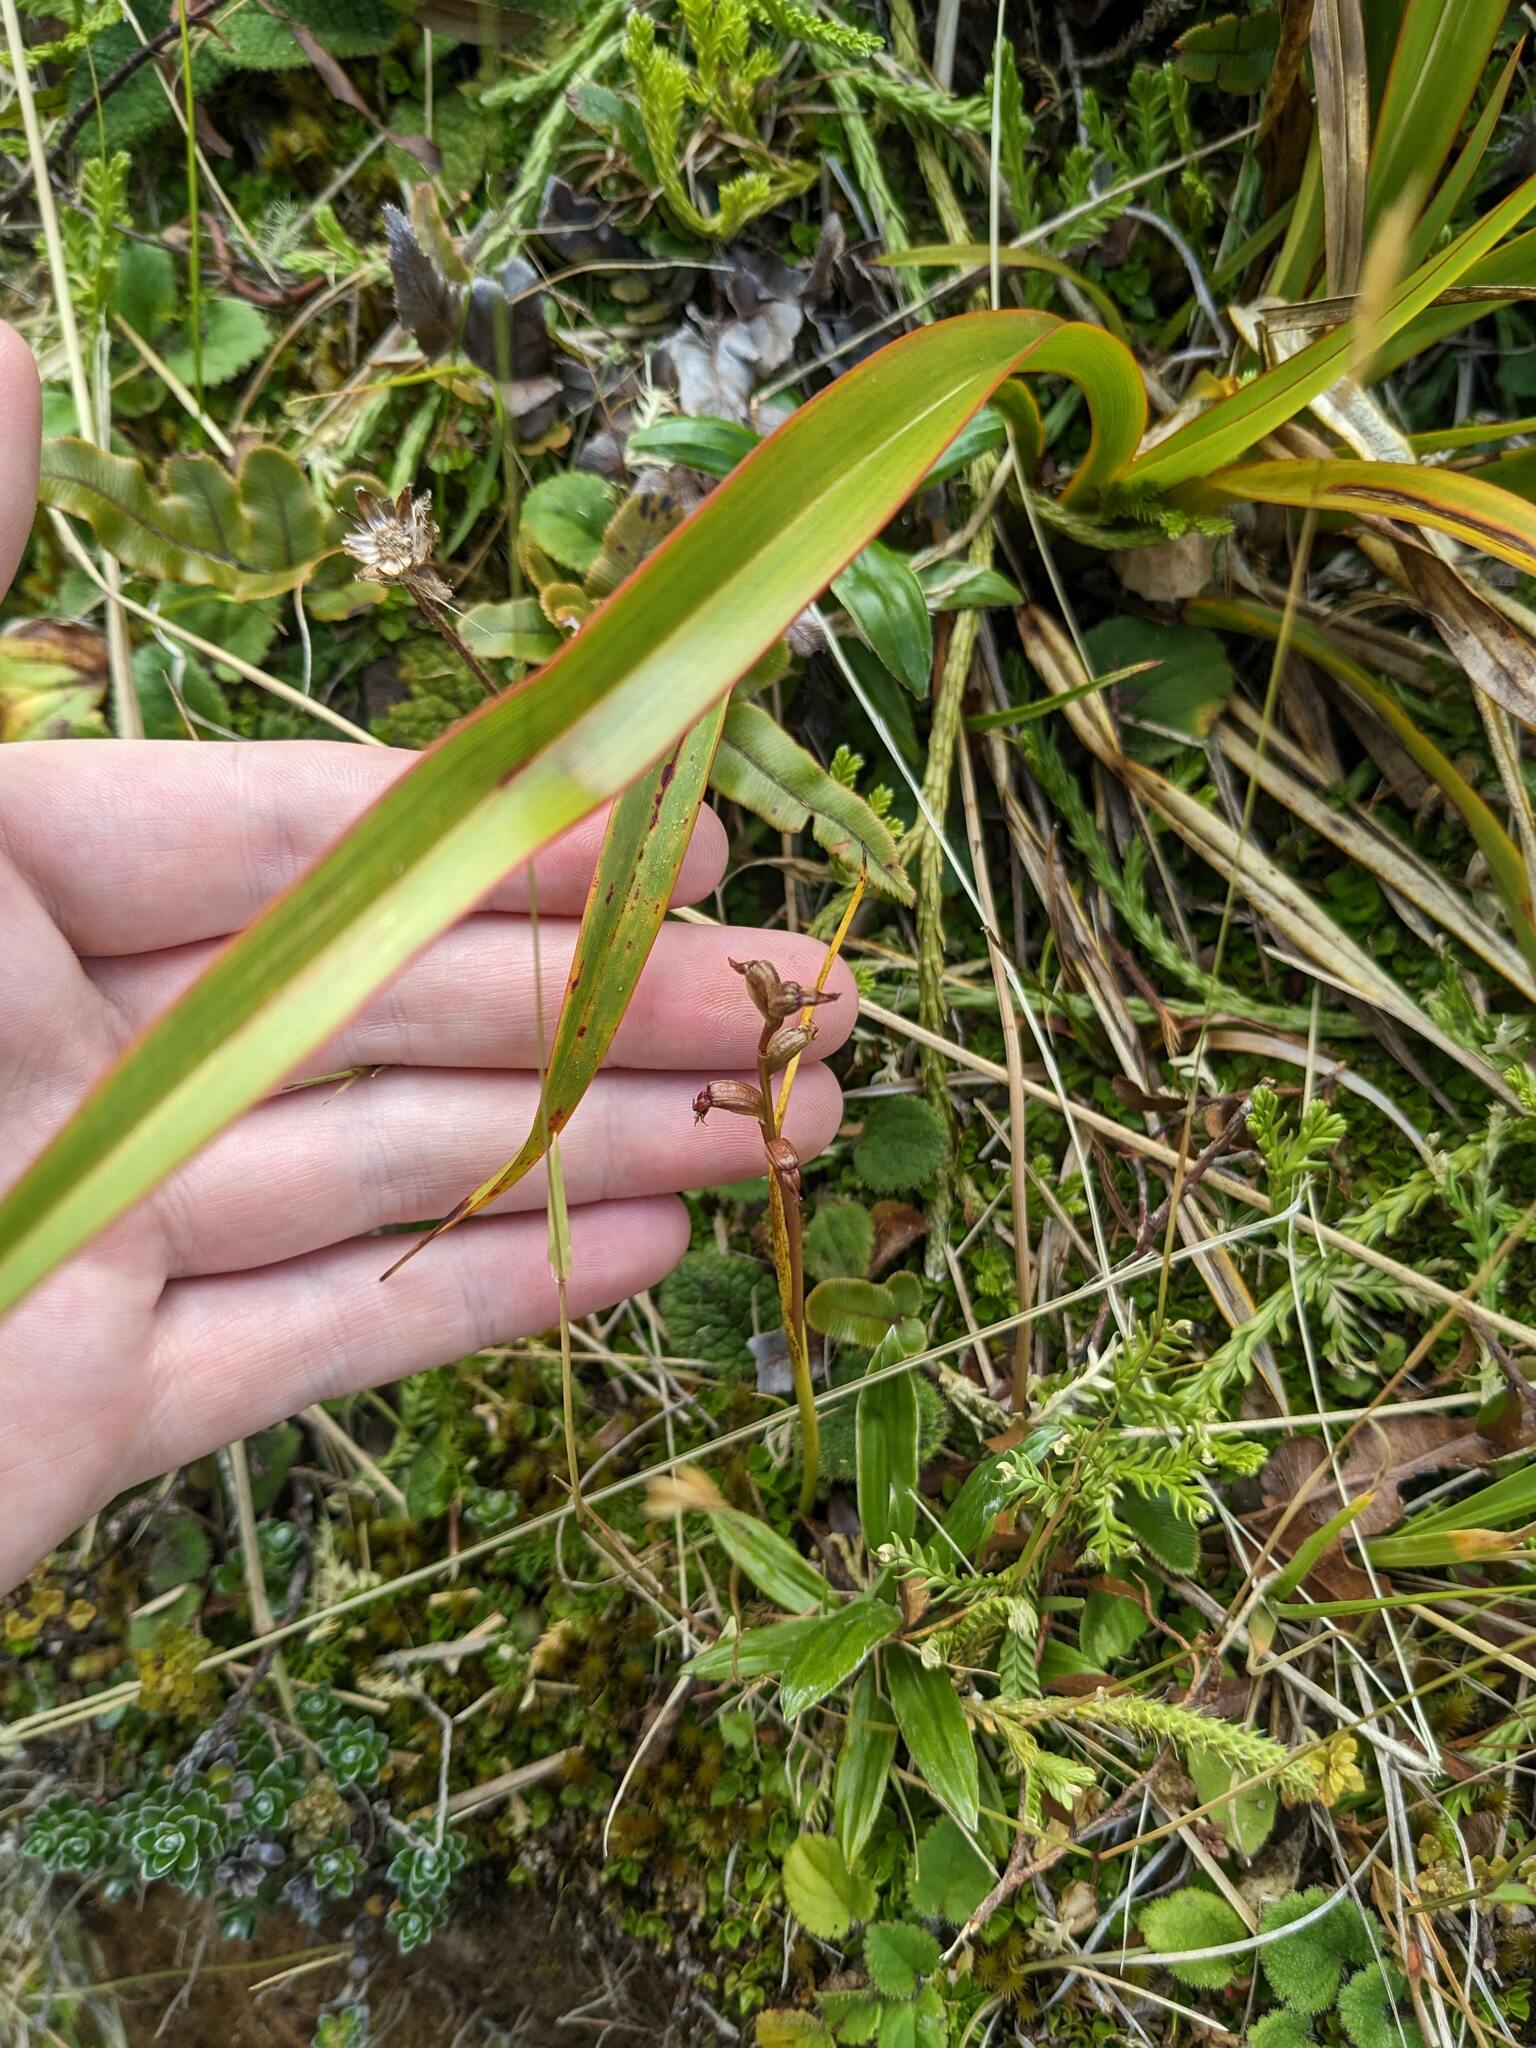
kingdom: Plantae
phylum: Tracheophyta
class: Liliopsida
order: Asparagales
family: Orchidaceae
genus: Prasophyllum
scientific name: Prasophyllum colensoi
